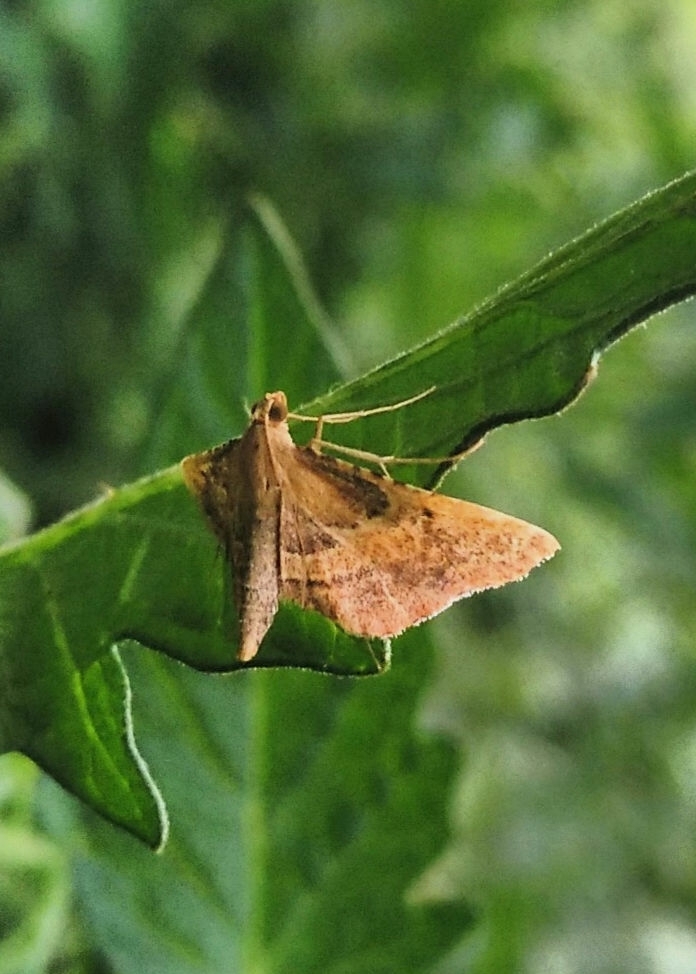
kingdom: Animalia
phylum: Arthropoda
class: Insecta
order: Lepidoptera
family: Pyralidae
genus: Endotricha
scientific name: Endotricha flammealis
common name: Rosy tabby
